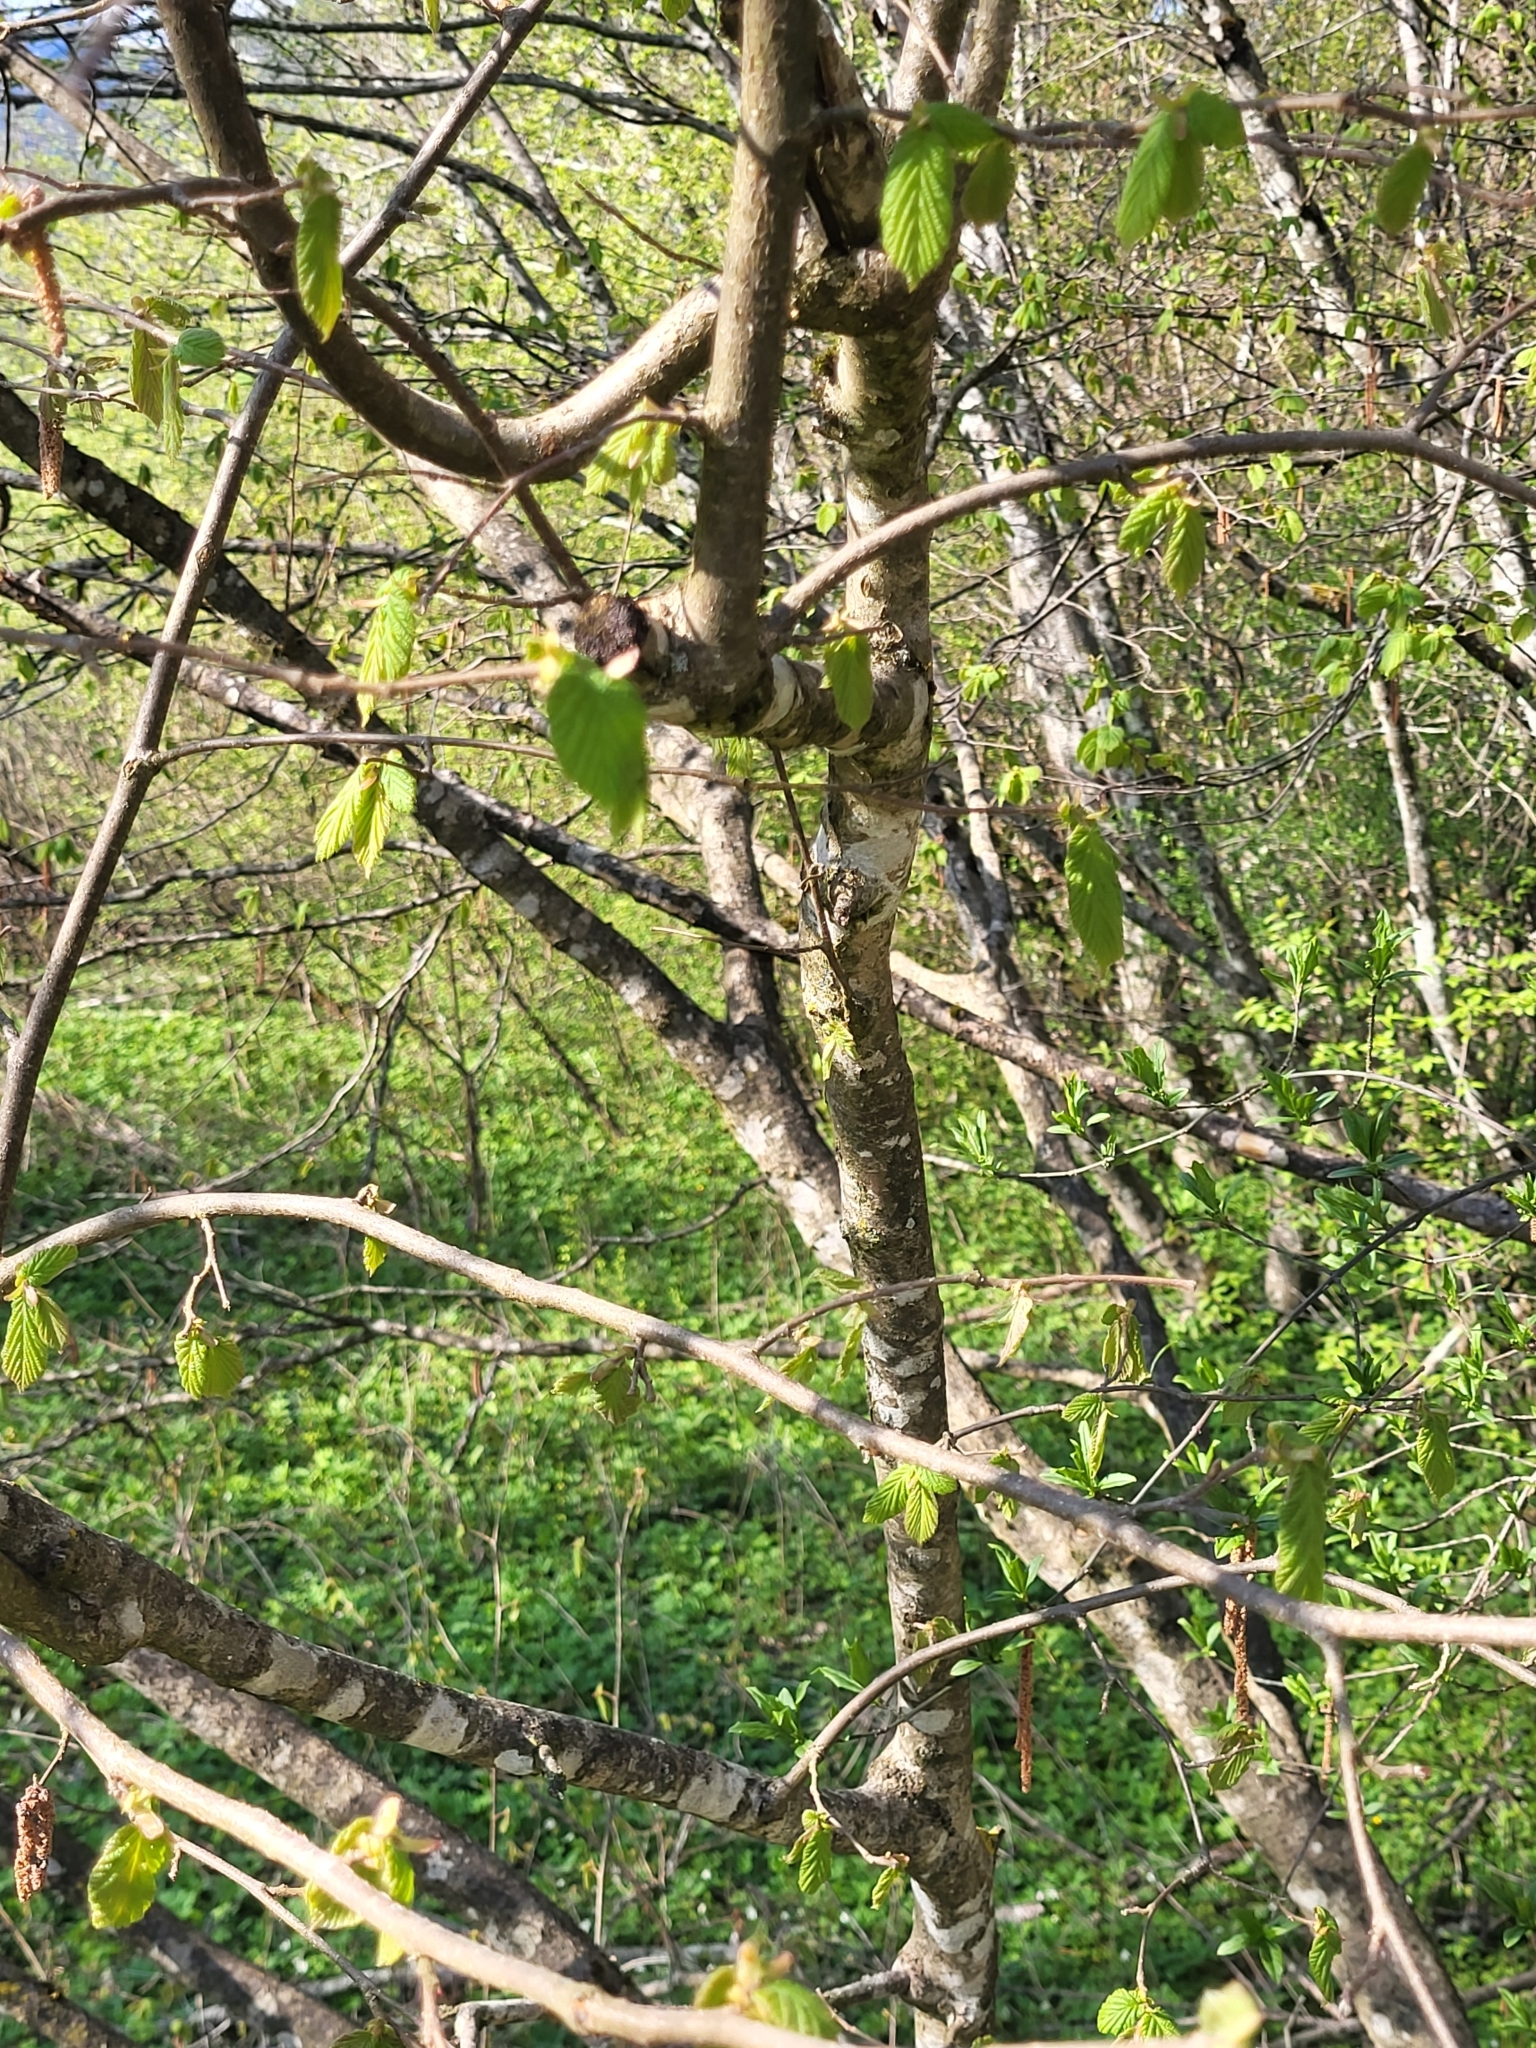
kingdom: Plantae
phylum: Tracheophyta
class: Magnoliopsida
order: Fagales
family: Betulaceae
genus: Corylus
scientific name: Corylus avellana
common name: European hazel
